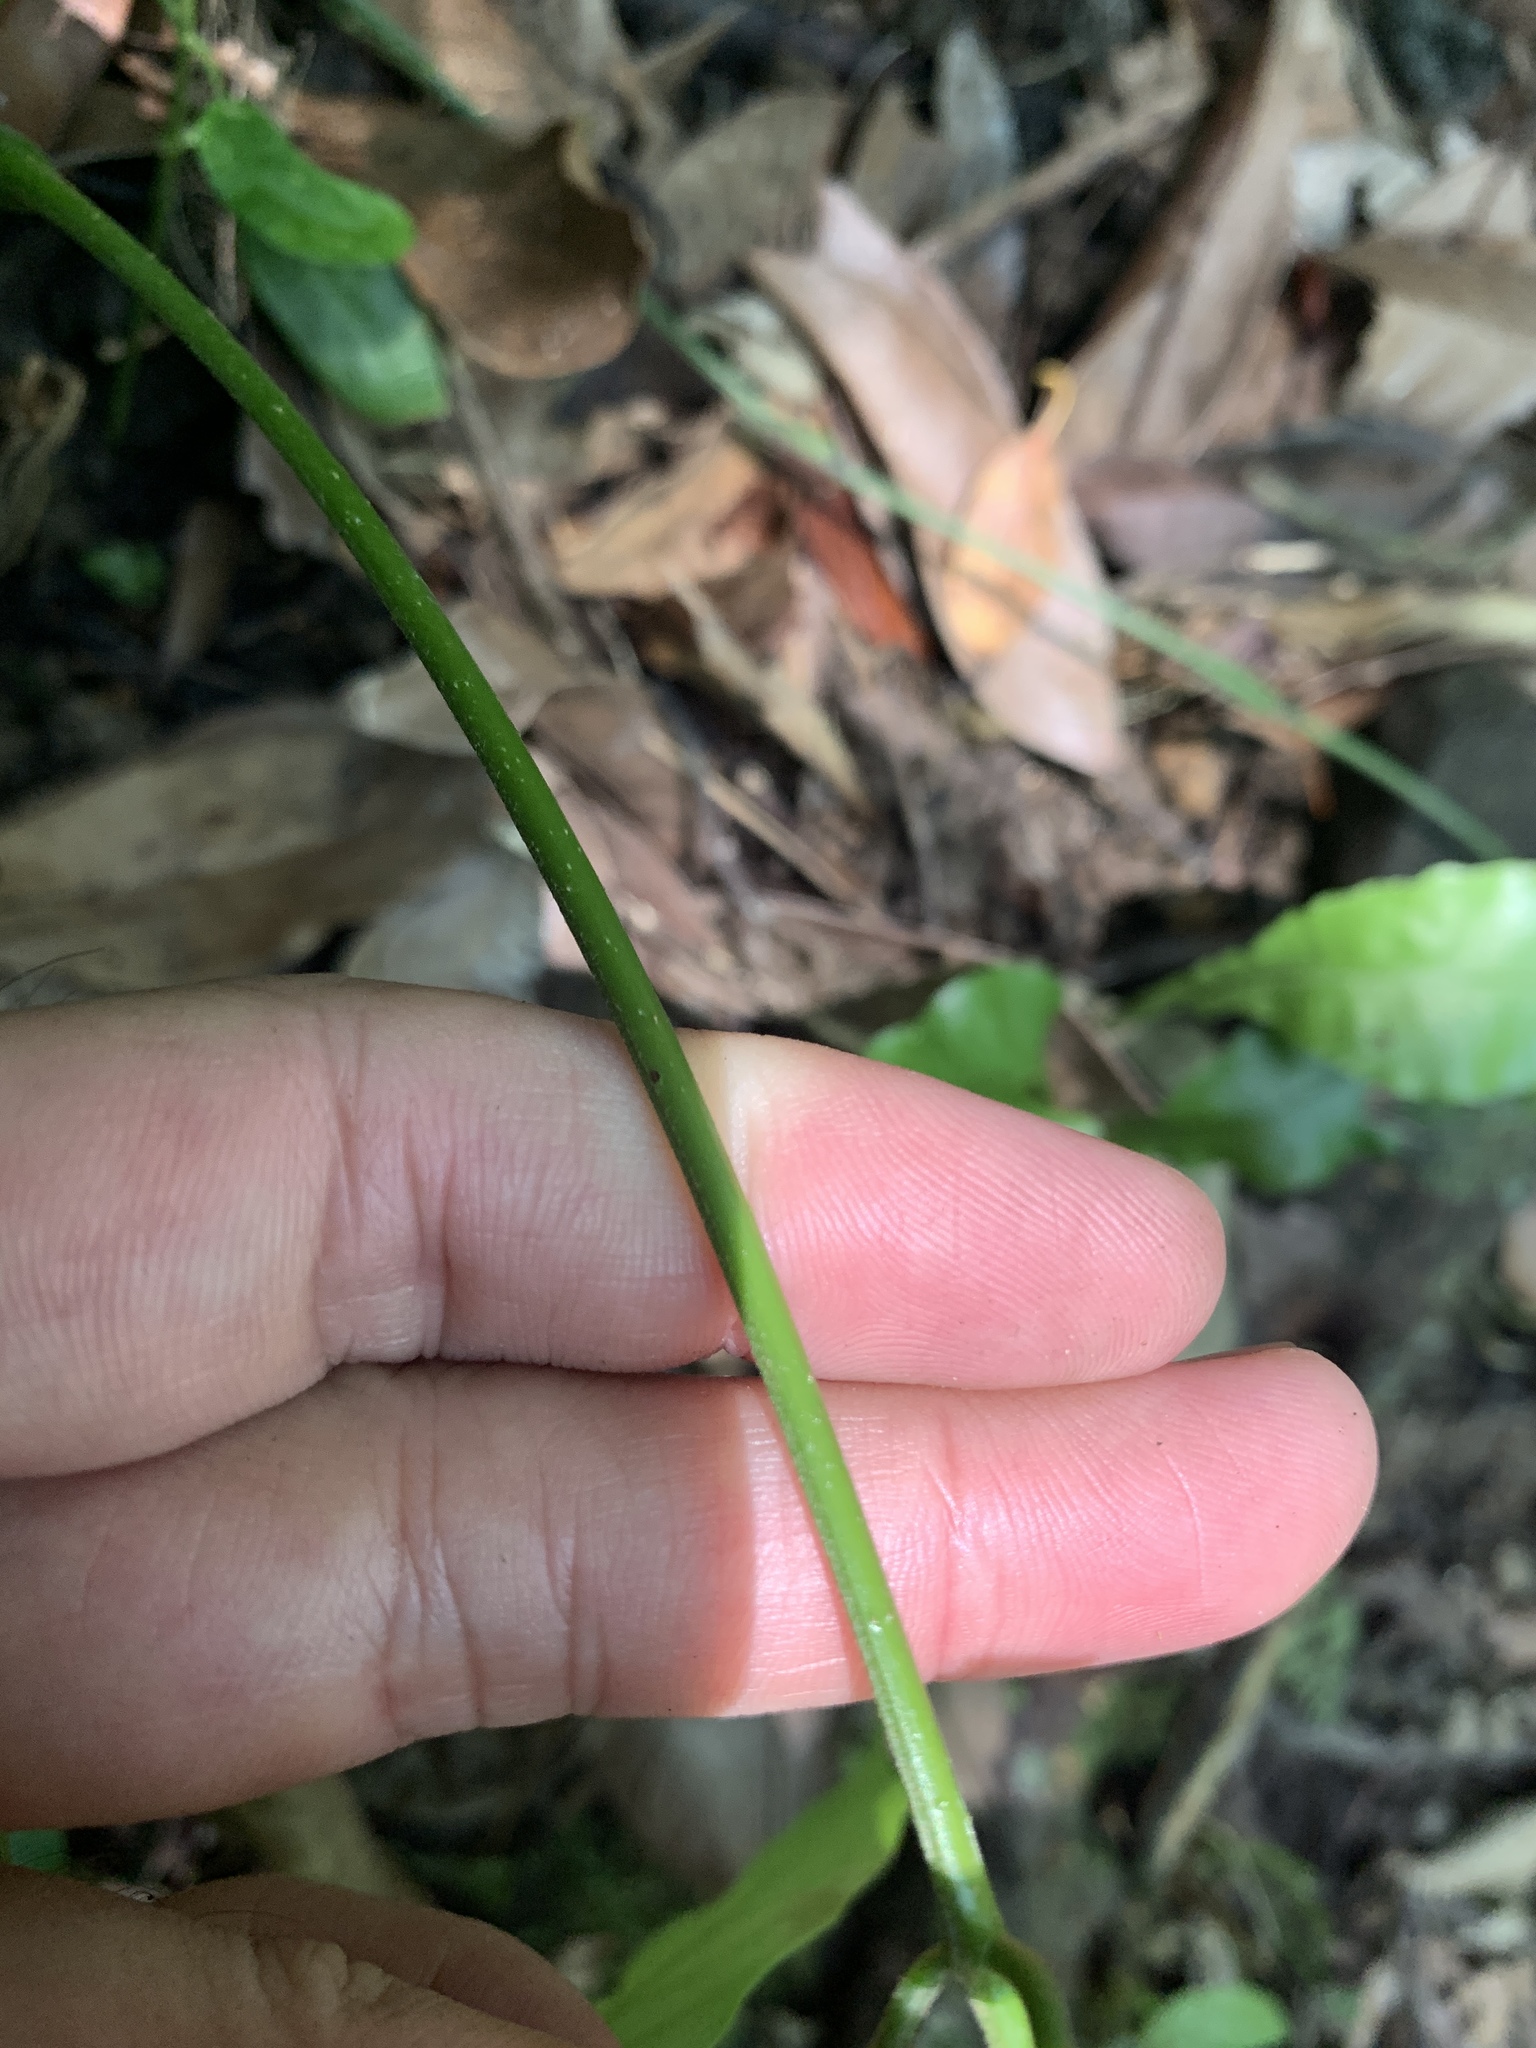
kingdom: Plantae
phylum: Tracheophyta
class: Magnoliopsida
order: Fabales
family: Fabaceae
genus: Millettia
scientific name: Millettia pachycarpa
